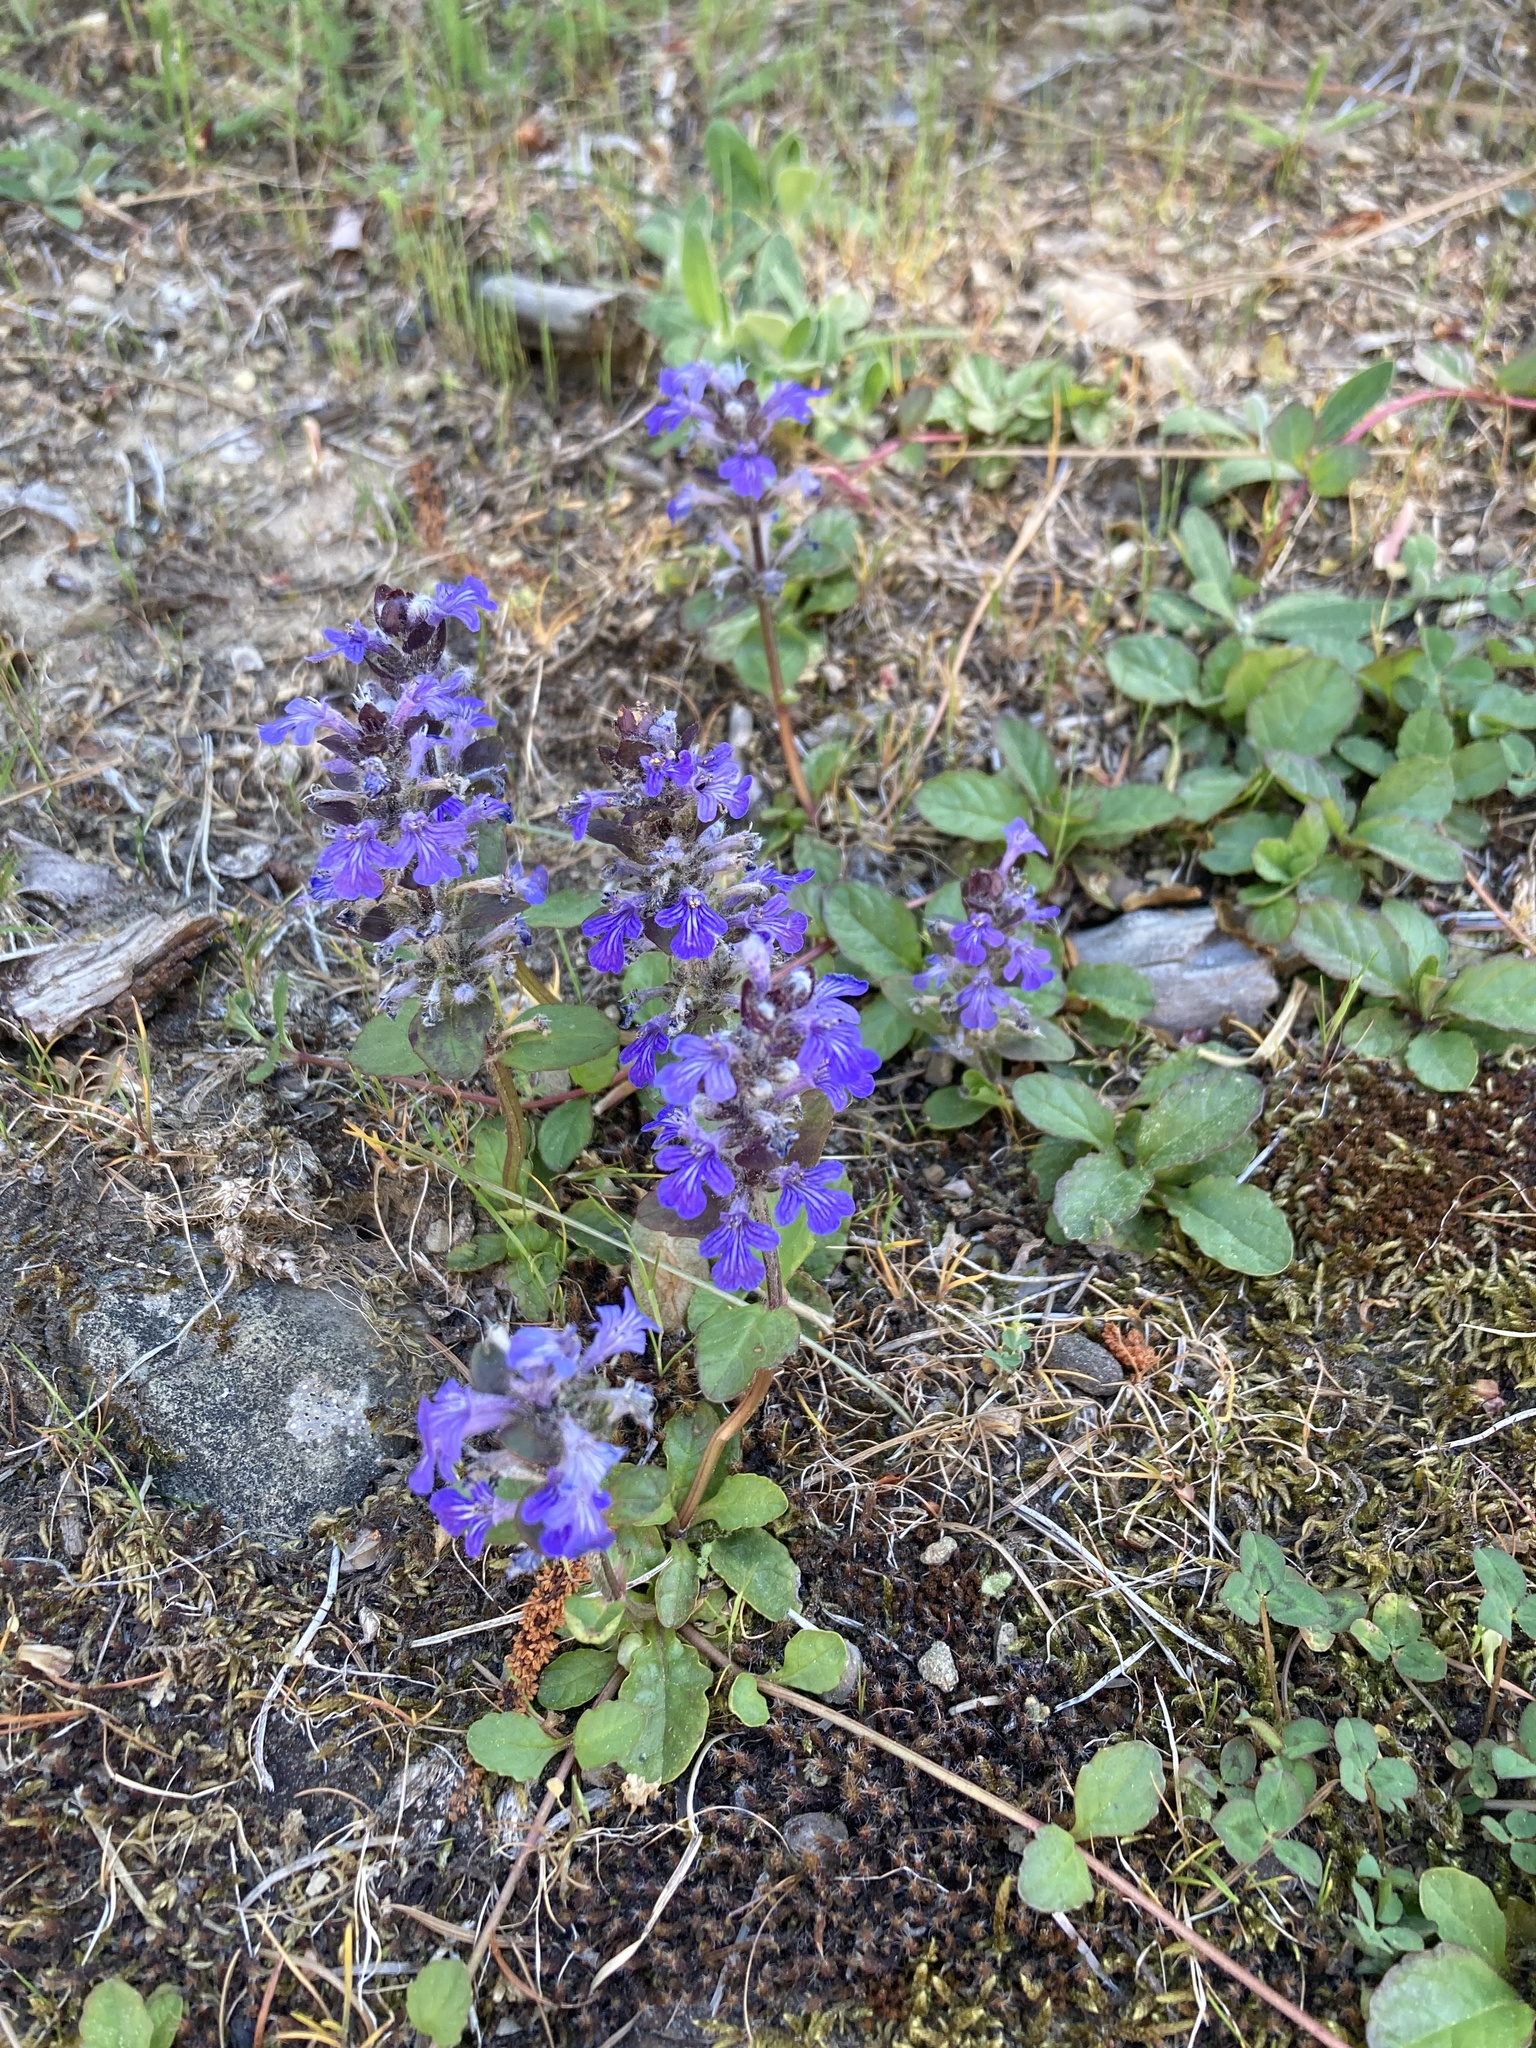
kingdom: Plantae
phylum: Tracheophyta
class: Magnoliopsida
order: Lamiales
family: Lamiaceae
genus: Ajuga
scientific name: Ajuga reptans
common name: Bugle
